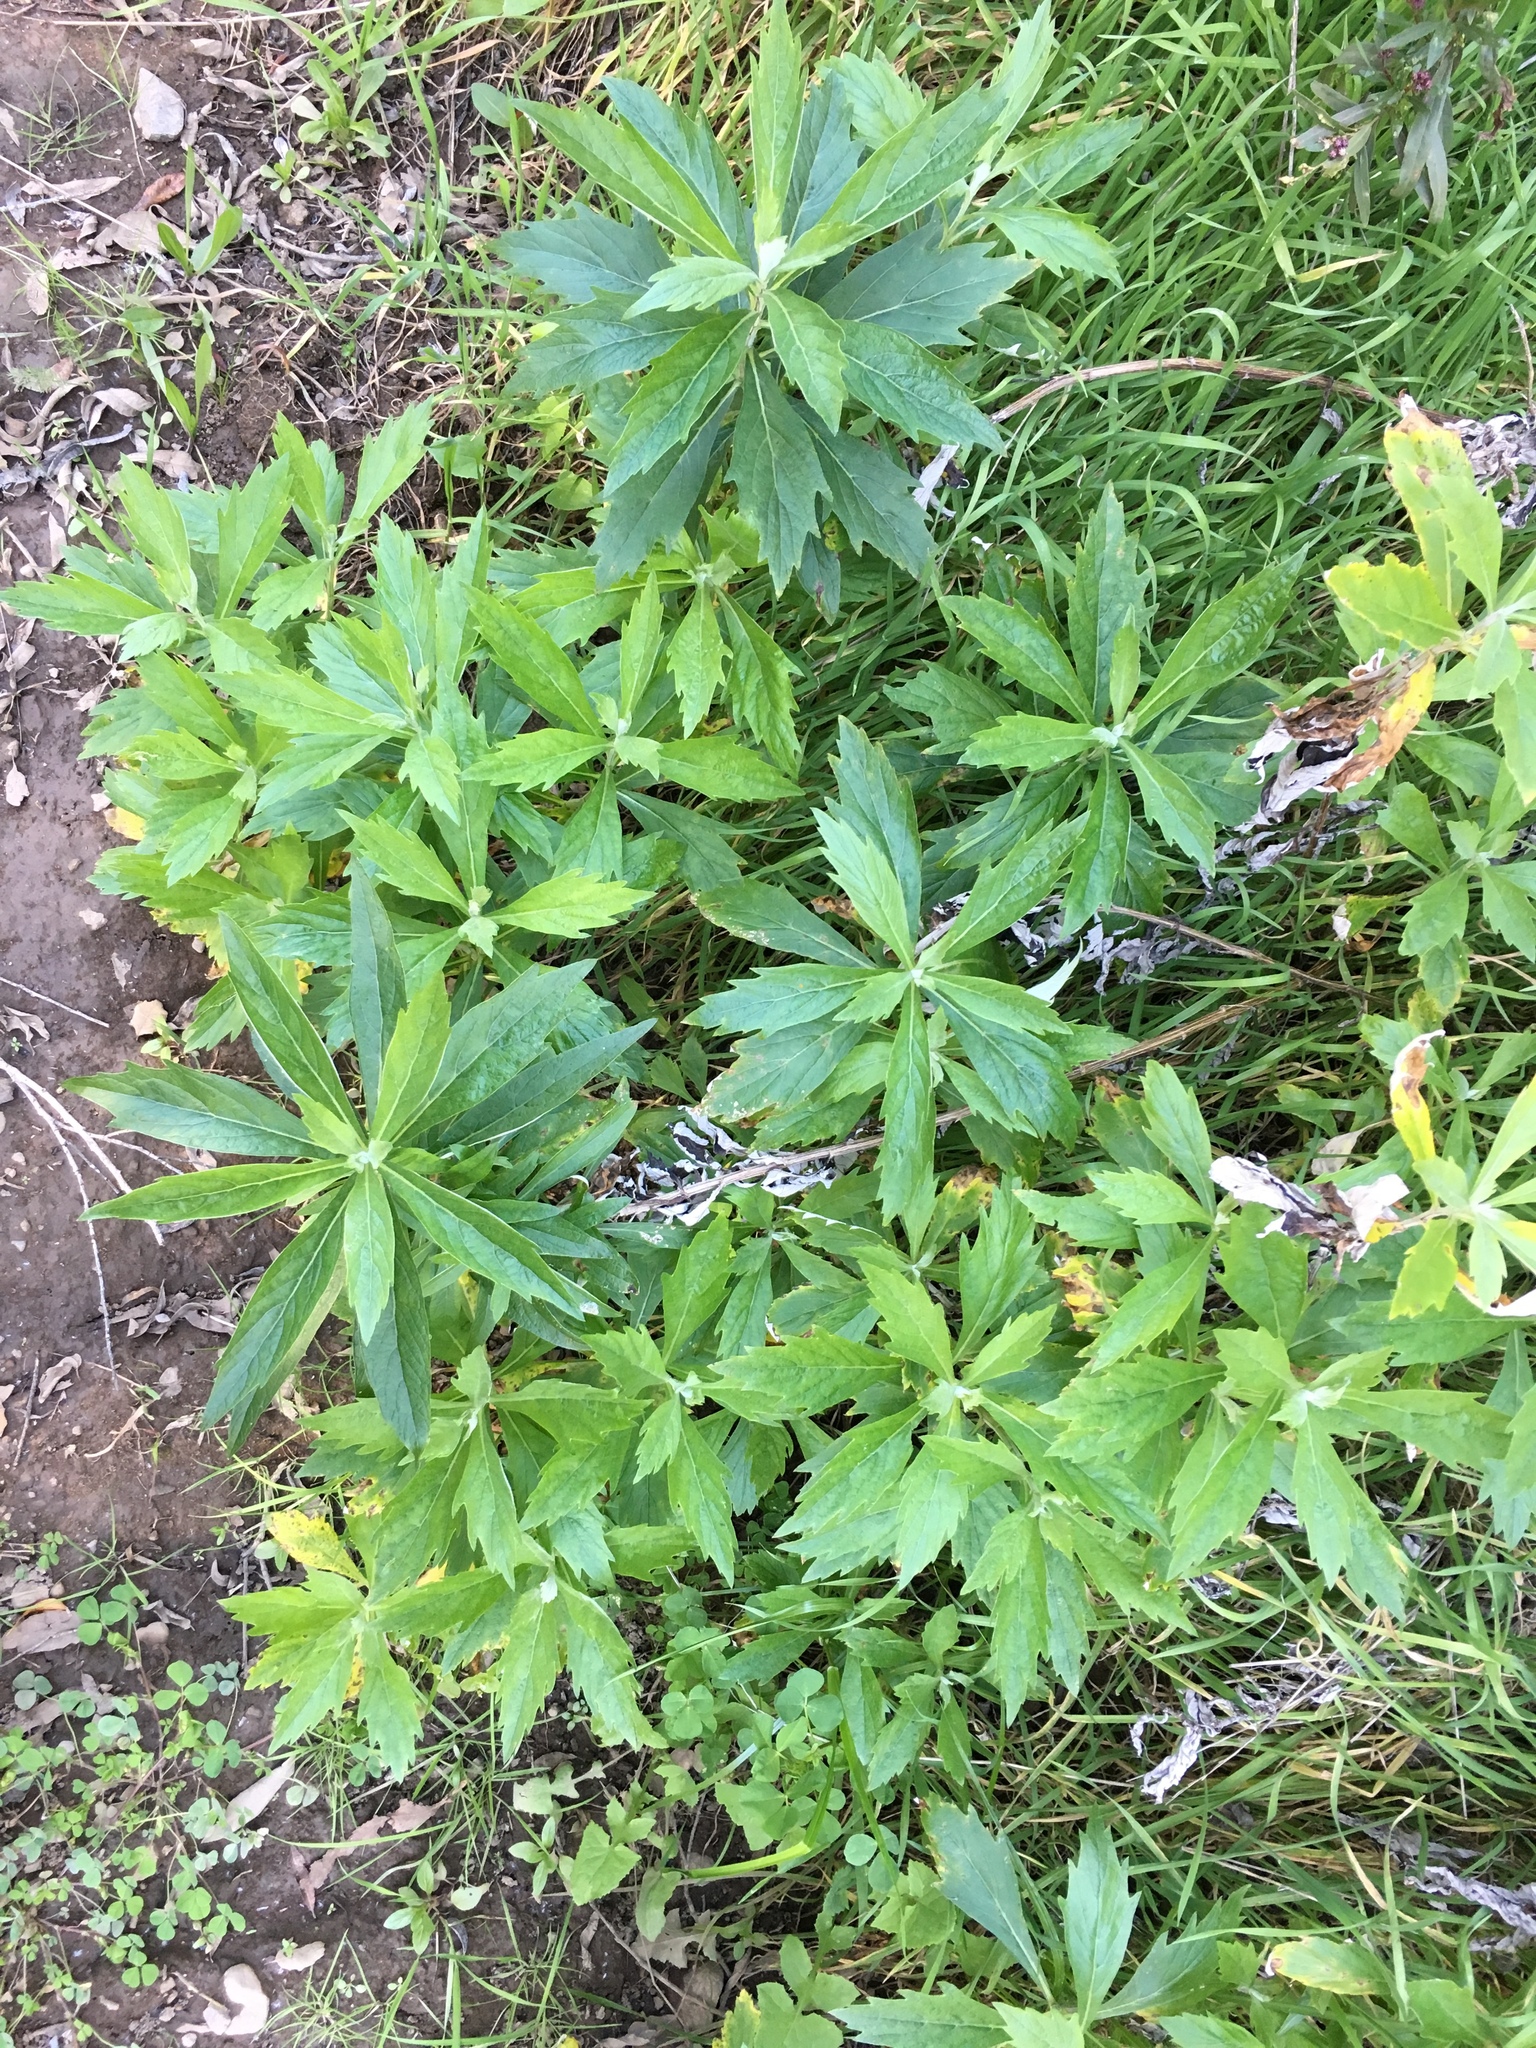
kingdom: Plantae
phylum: Tracheophyta
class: Magnoliopsida
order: Asterales
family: Asteraceae
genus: Artemisia
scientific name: Artemisia douglasiana
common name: Northwest mugwort
